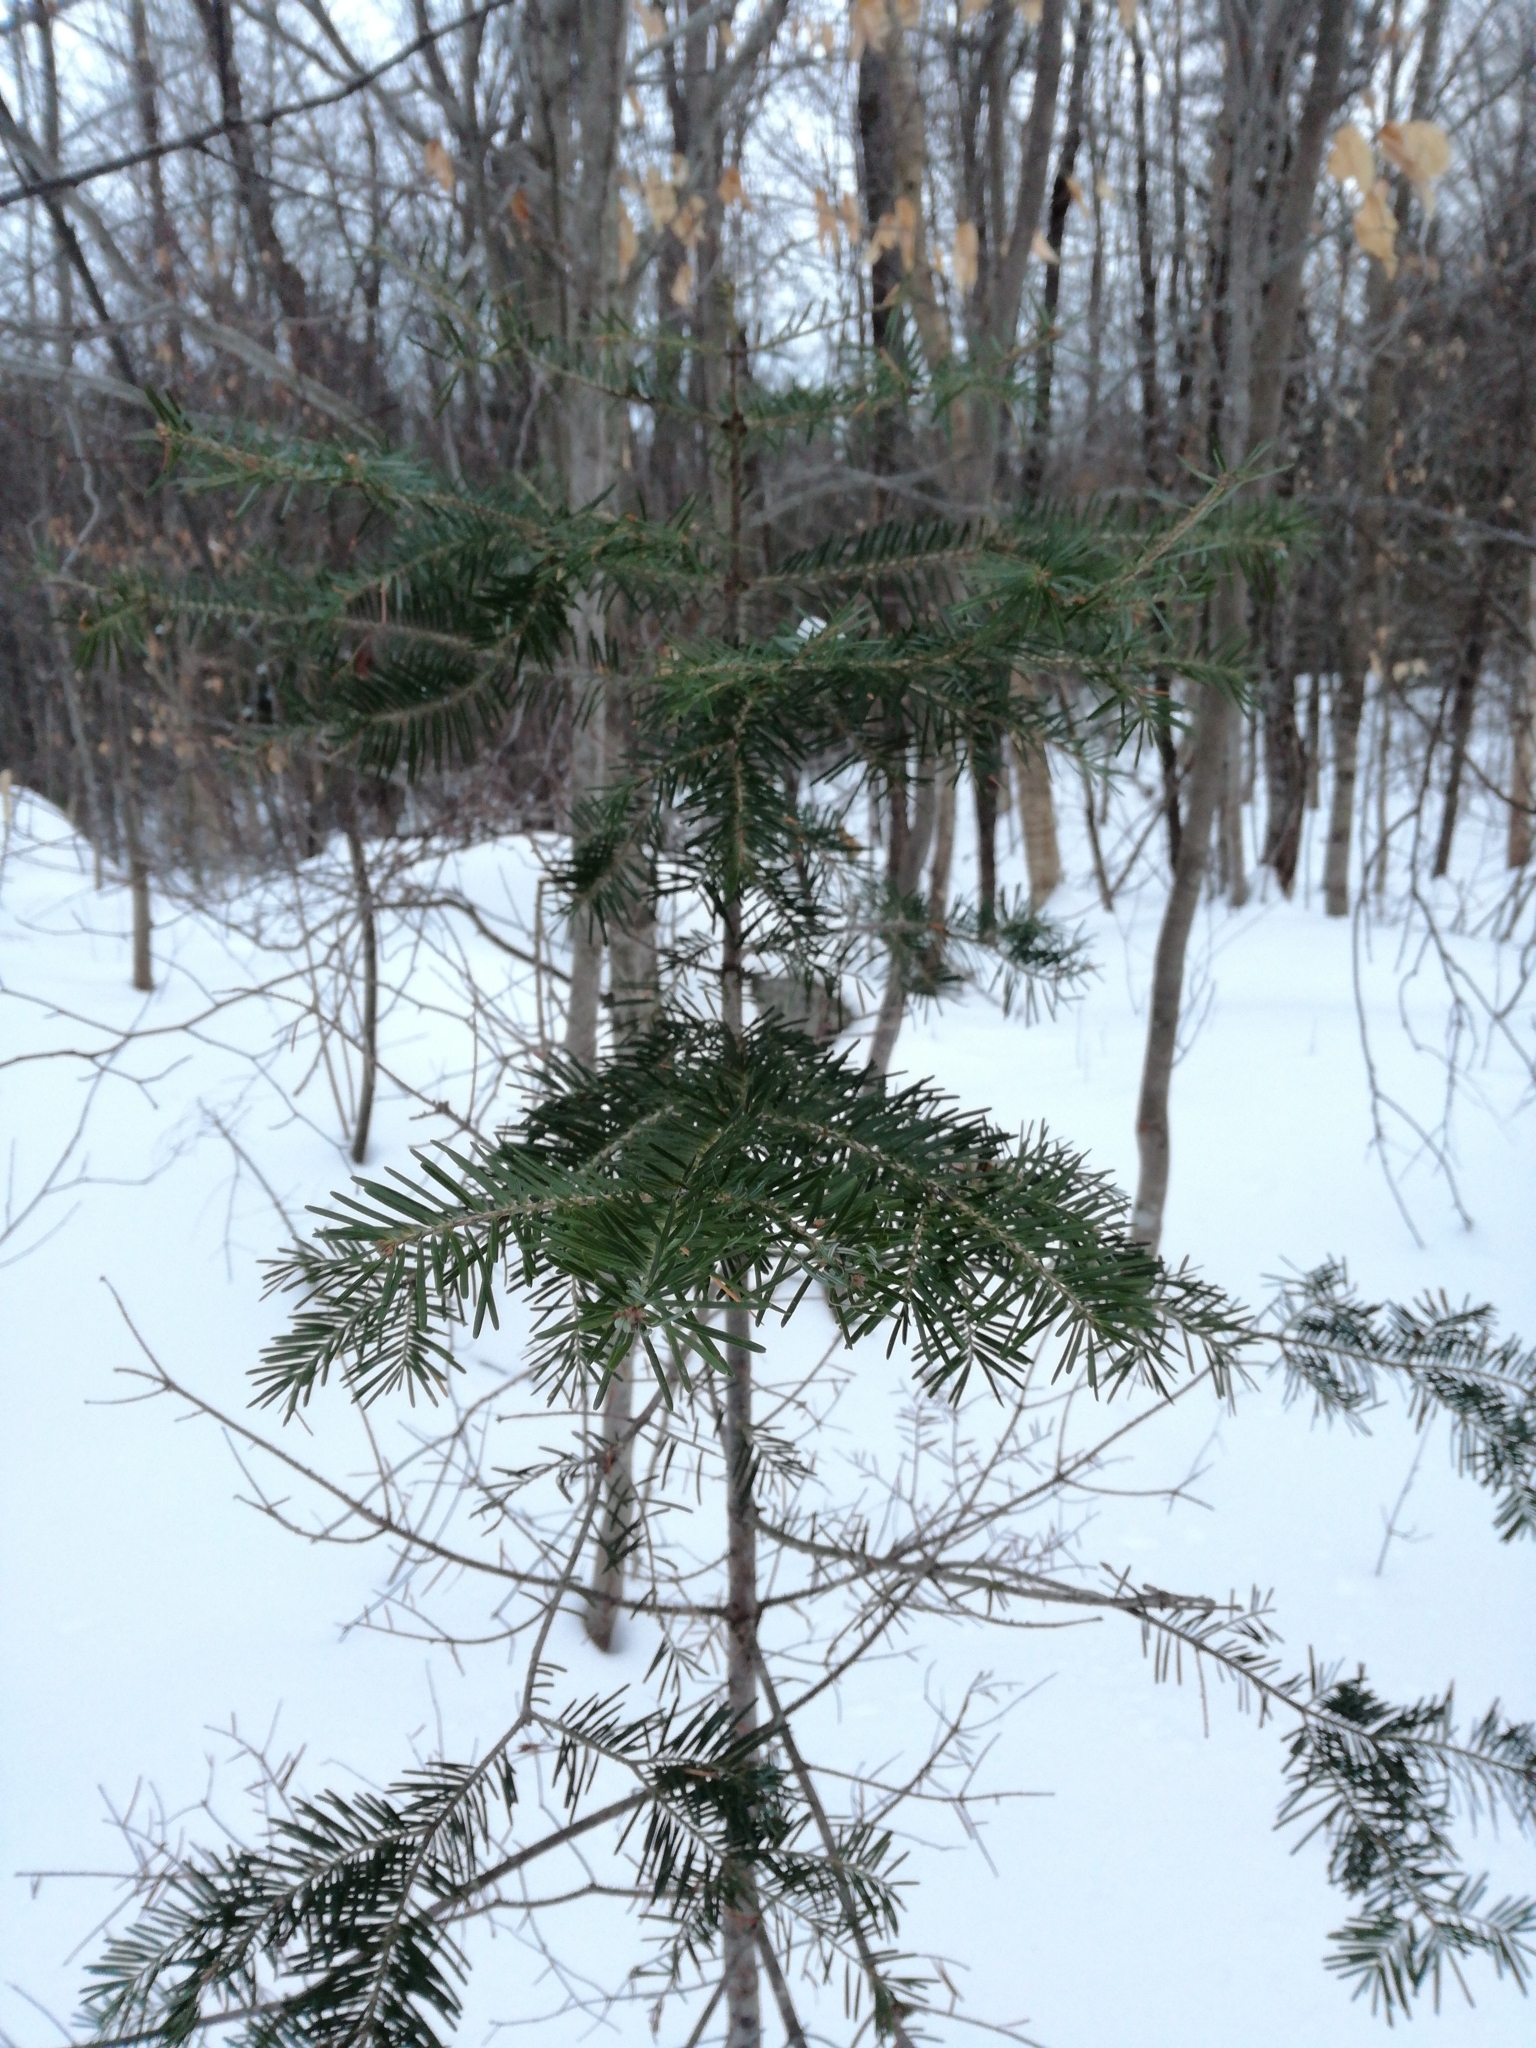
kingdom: Plantae
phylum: Tracheophyta
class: Pinopsida
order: Pinales
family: Pinaceae
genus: Abies
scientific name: Abies balsamea
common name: Balsam fir
